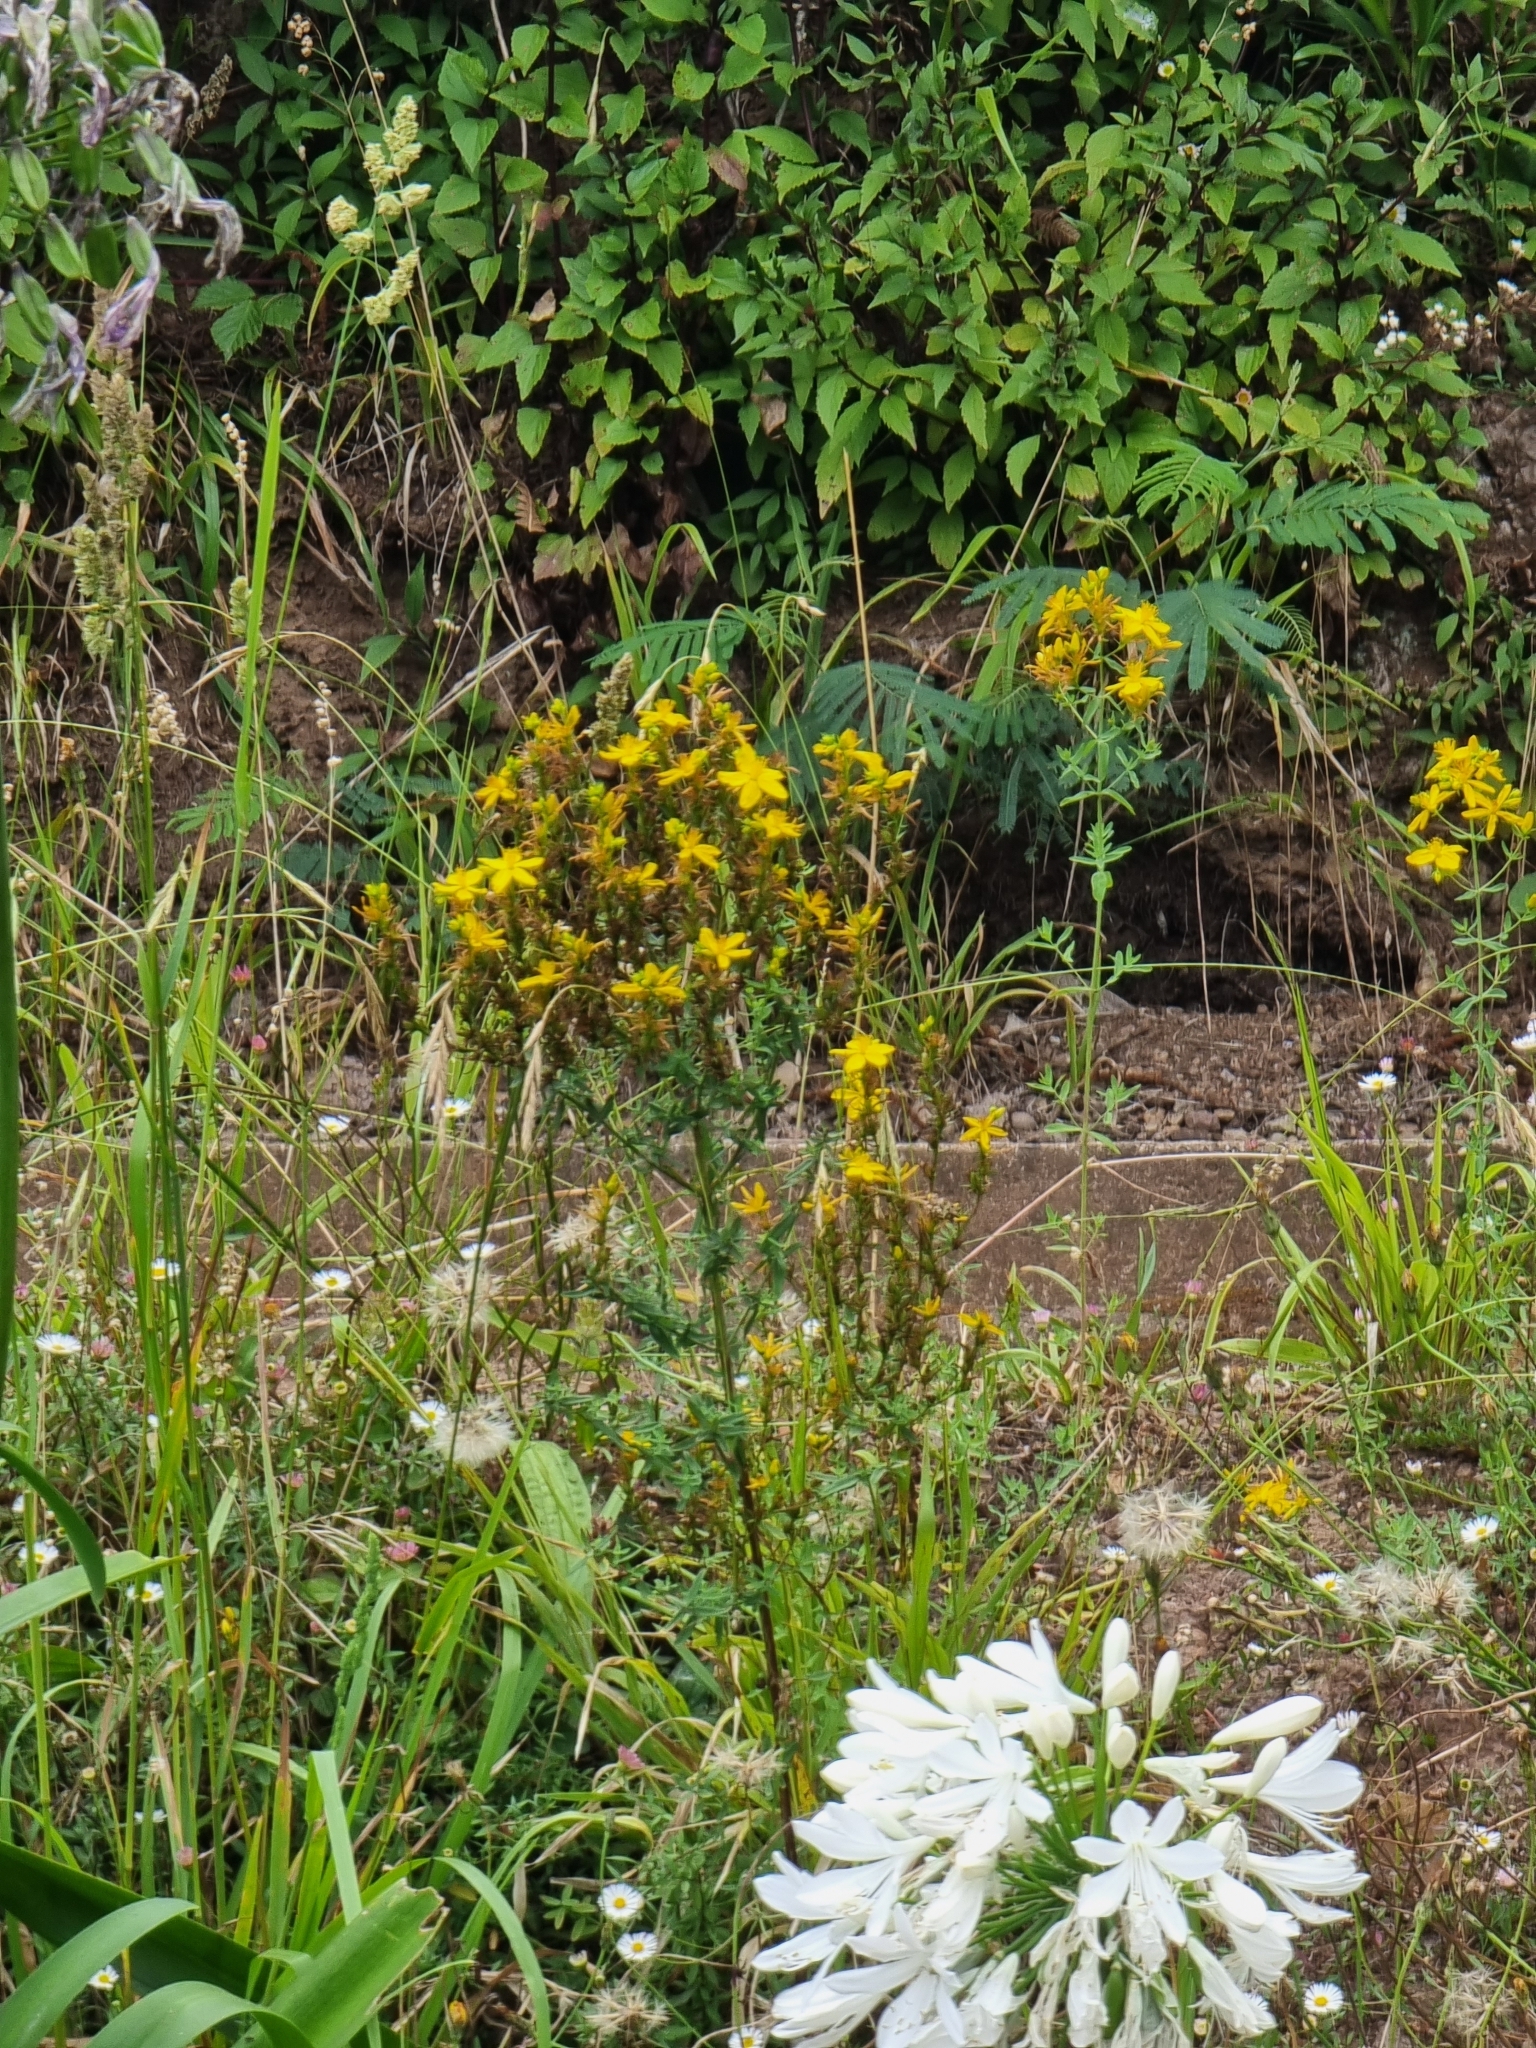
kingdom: Plantae
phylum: Tracheophyta
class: Magnoliopsida
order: Malpighiales
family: Hypericaceae
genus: Hypericum
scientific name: Hypericum perforatum
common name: Common st. johnswort
